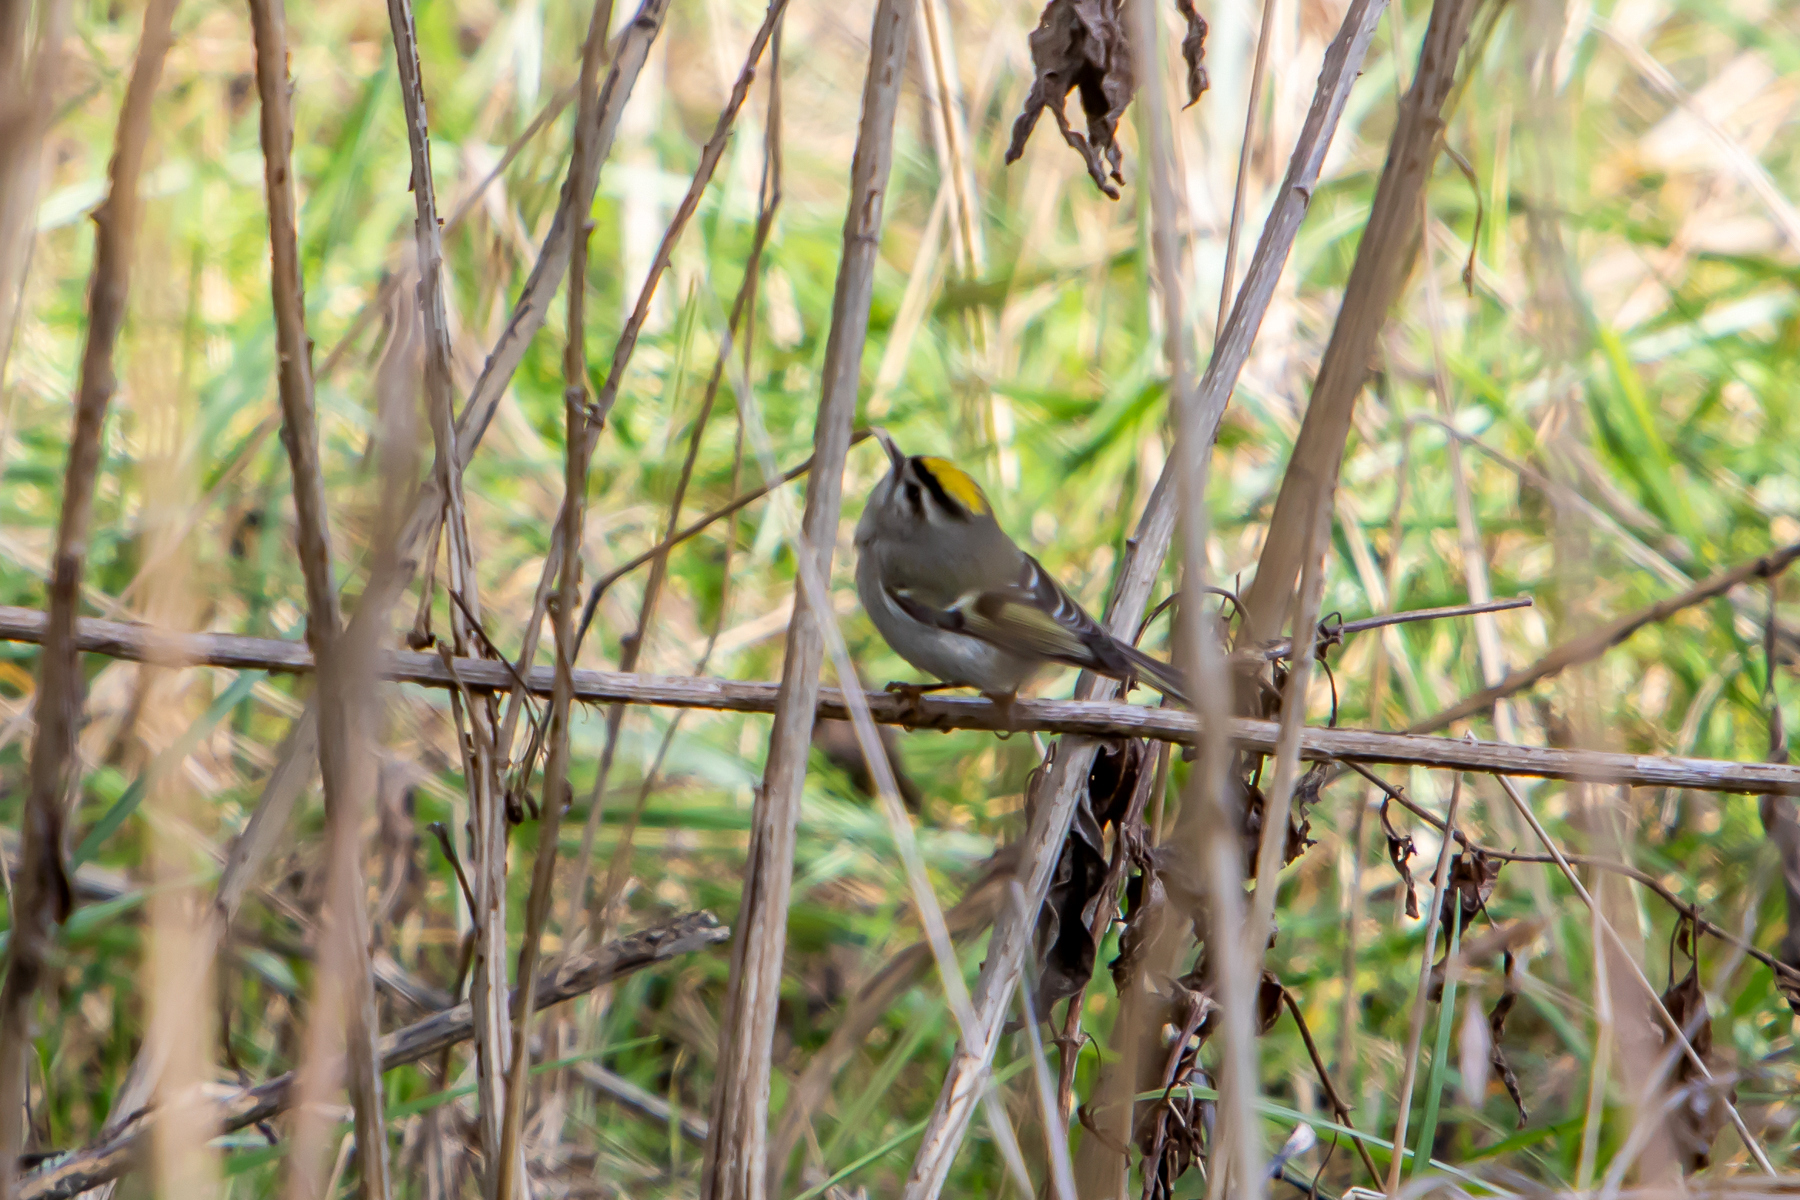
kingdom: Animalia
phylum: Chordata
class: Aves
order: Passeriformes
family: Regulidae
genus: Regulus
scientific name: Regulus satrapa
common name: Golden-crowned kinglet
